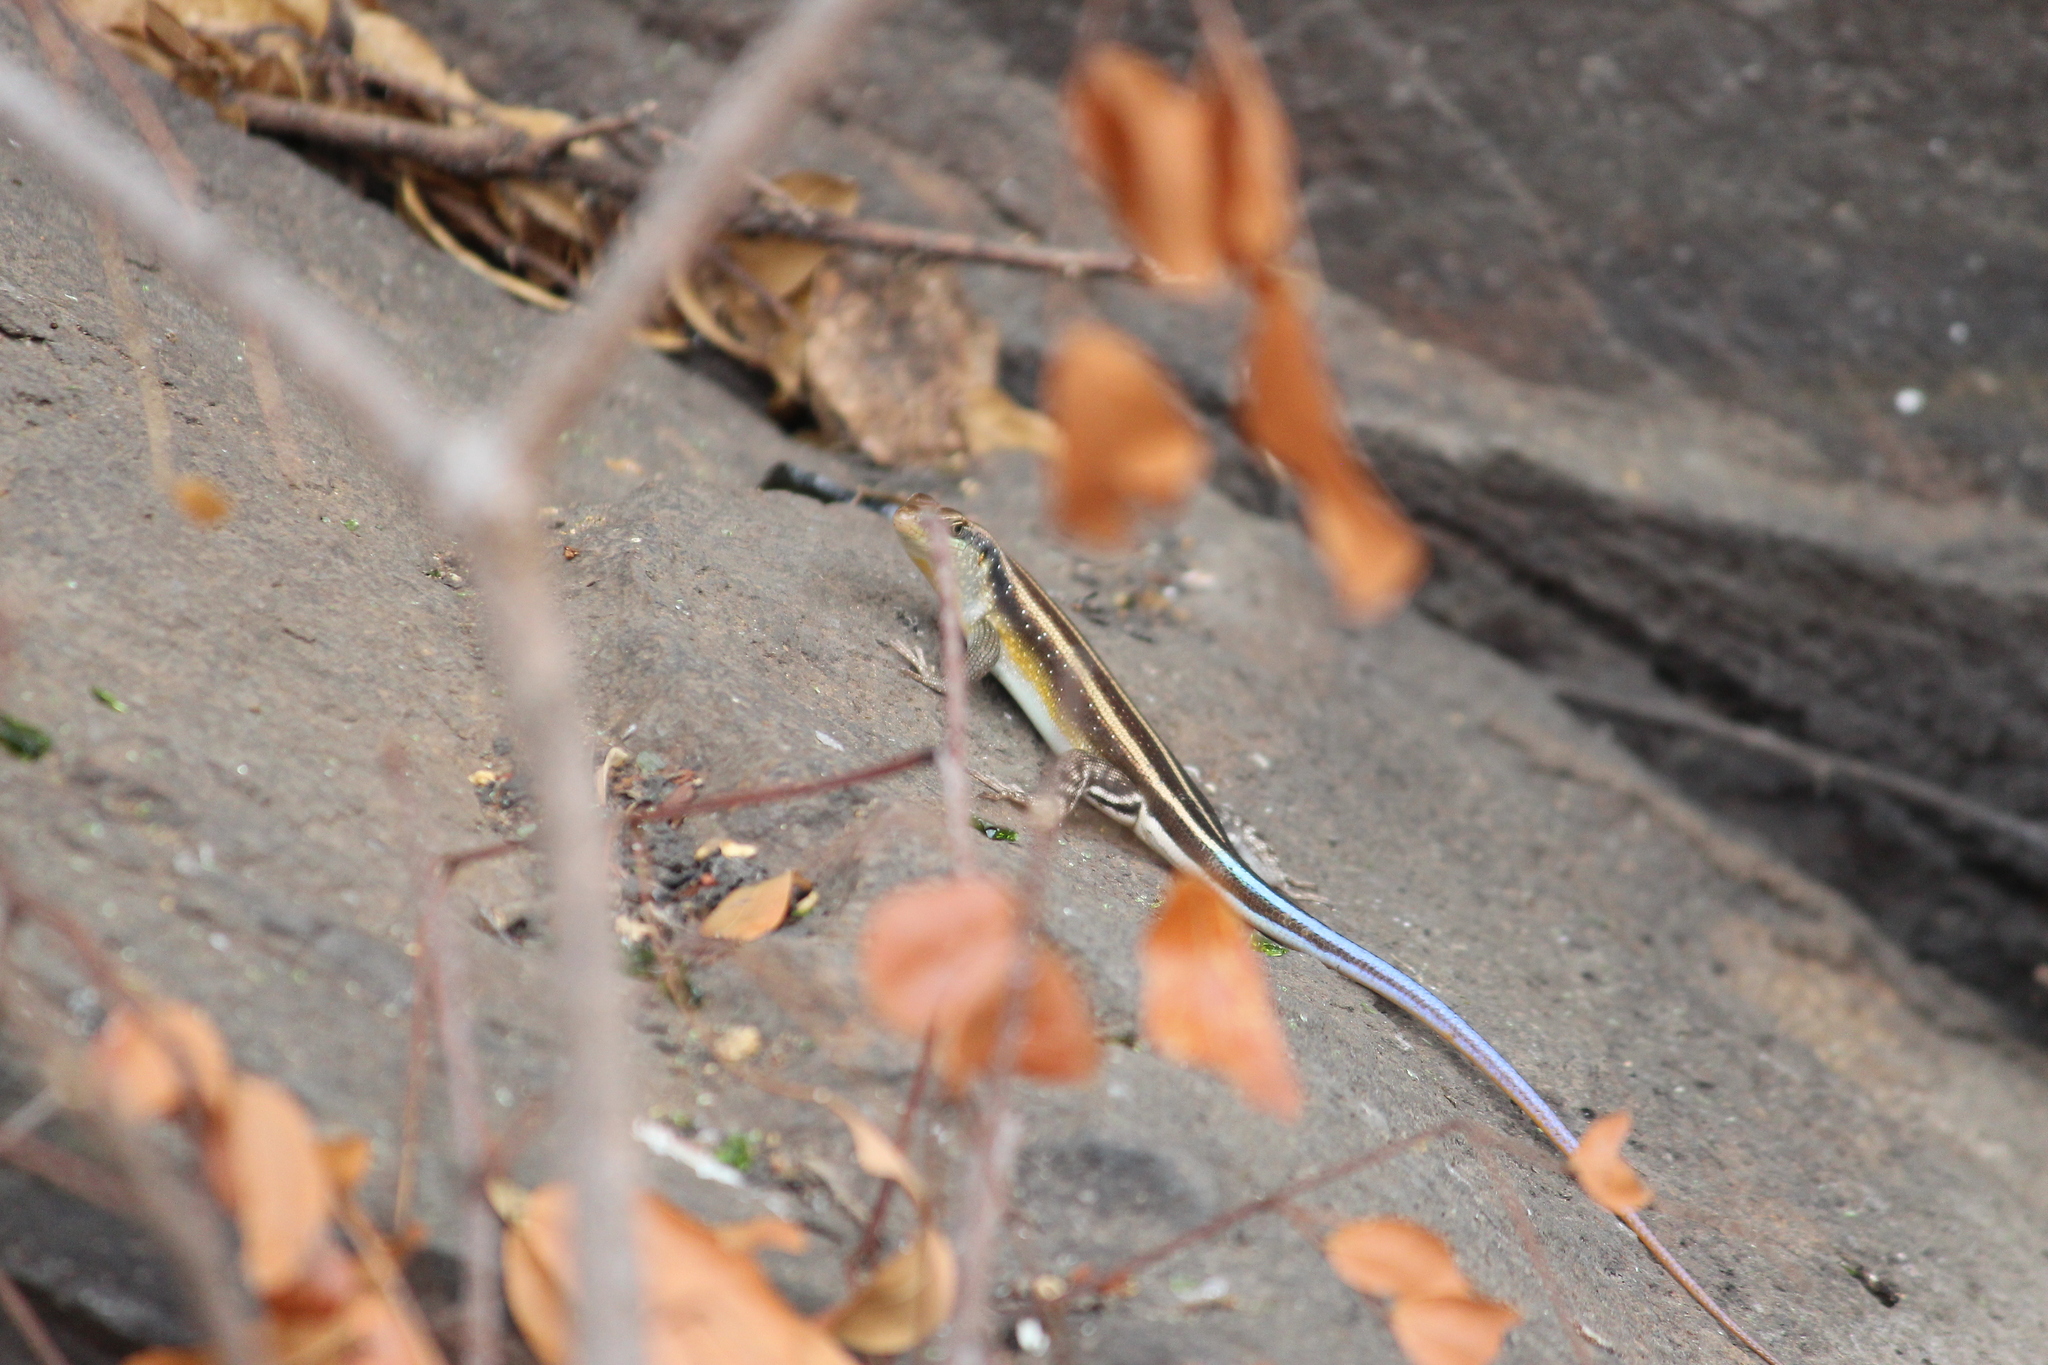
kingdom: Animalia
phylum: Chordata
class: Squamata
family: Scincidae
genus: Trachylepis
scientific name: Trachylepis margaritifera
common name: Rainbow skink
